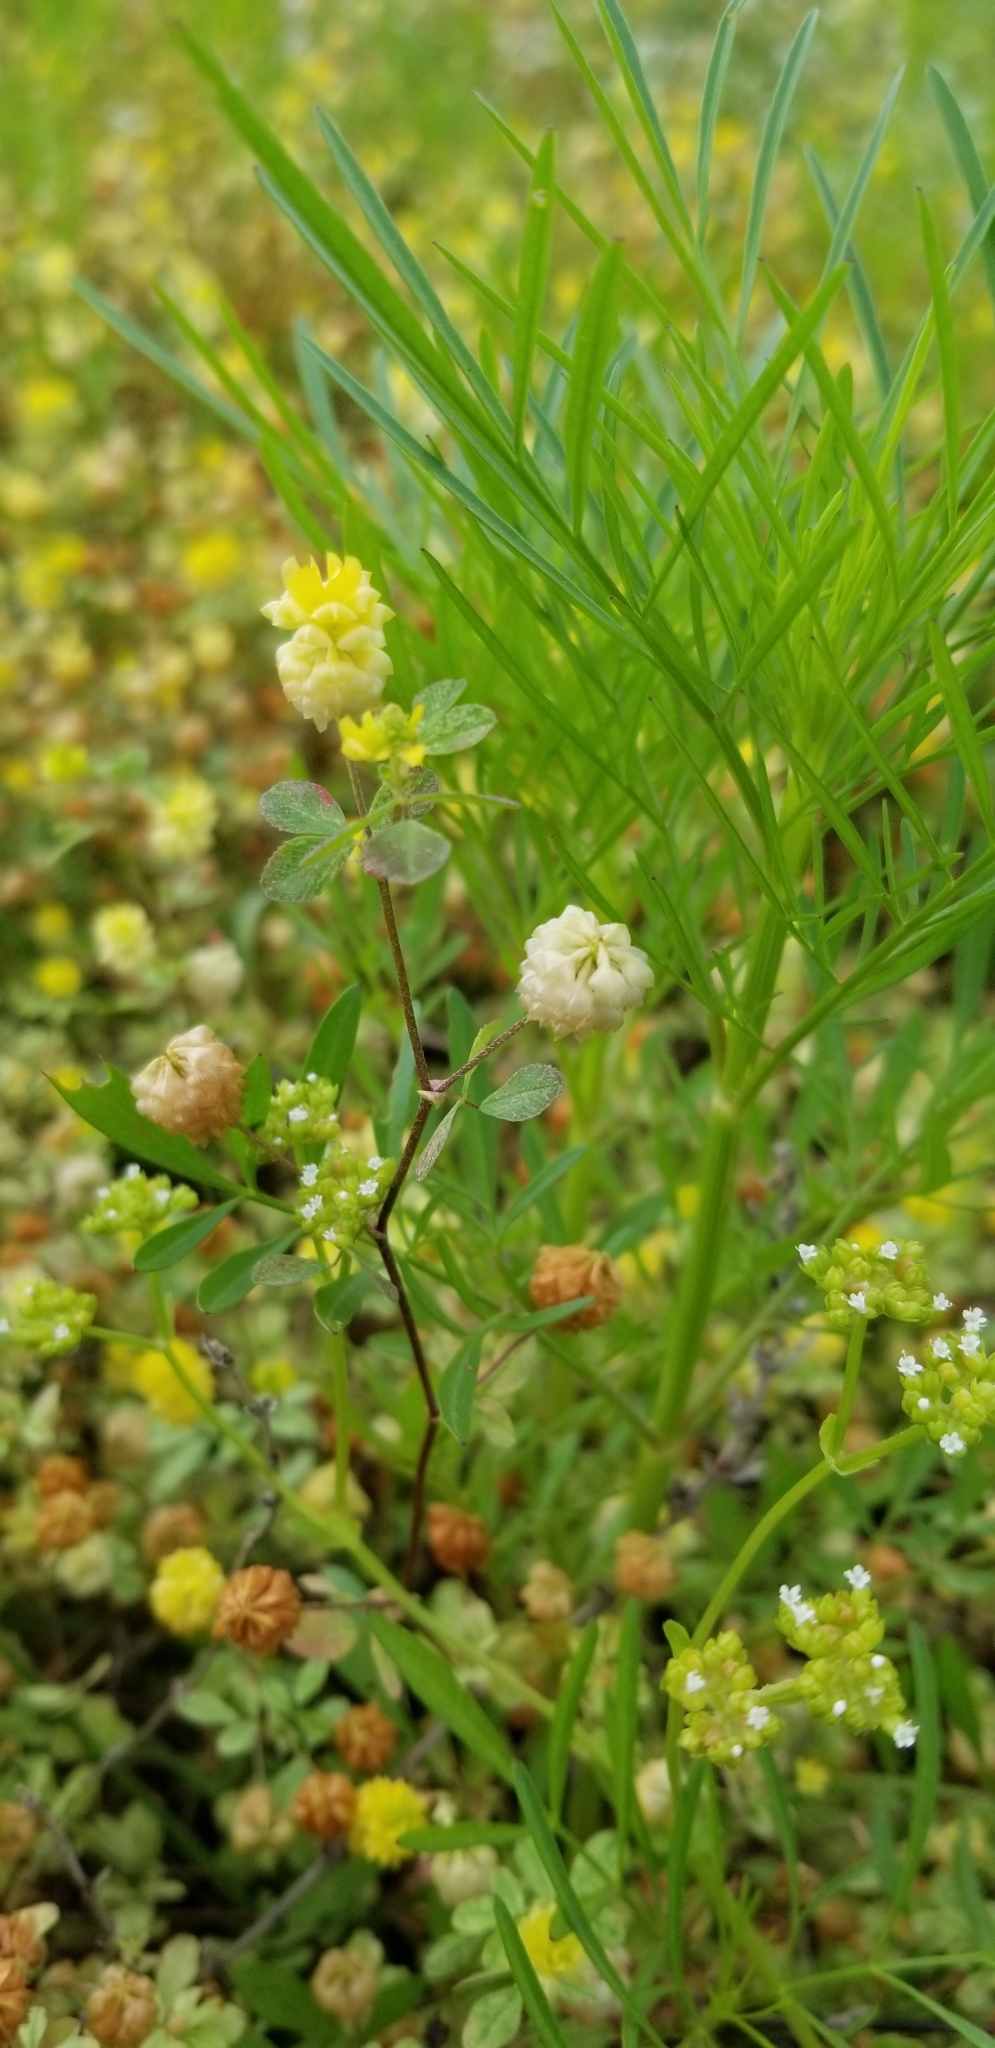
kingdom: Plantae
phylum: Tracheophyta
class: Magnoliopsida
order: Fabales
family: Fabaceae
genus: Trifolium
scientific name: Trifolium campestre
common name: Field clover
